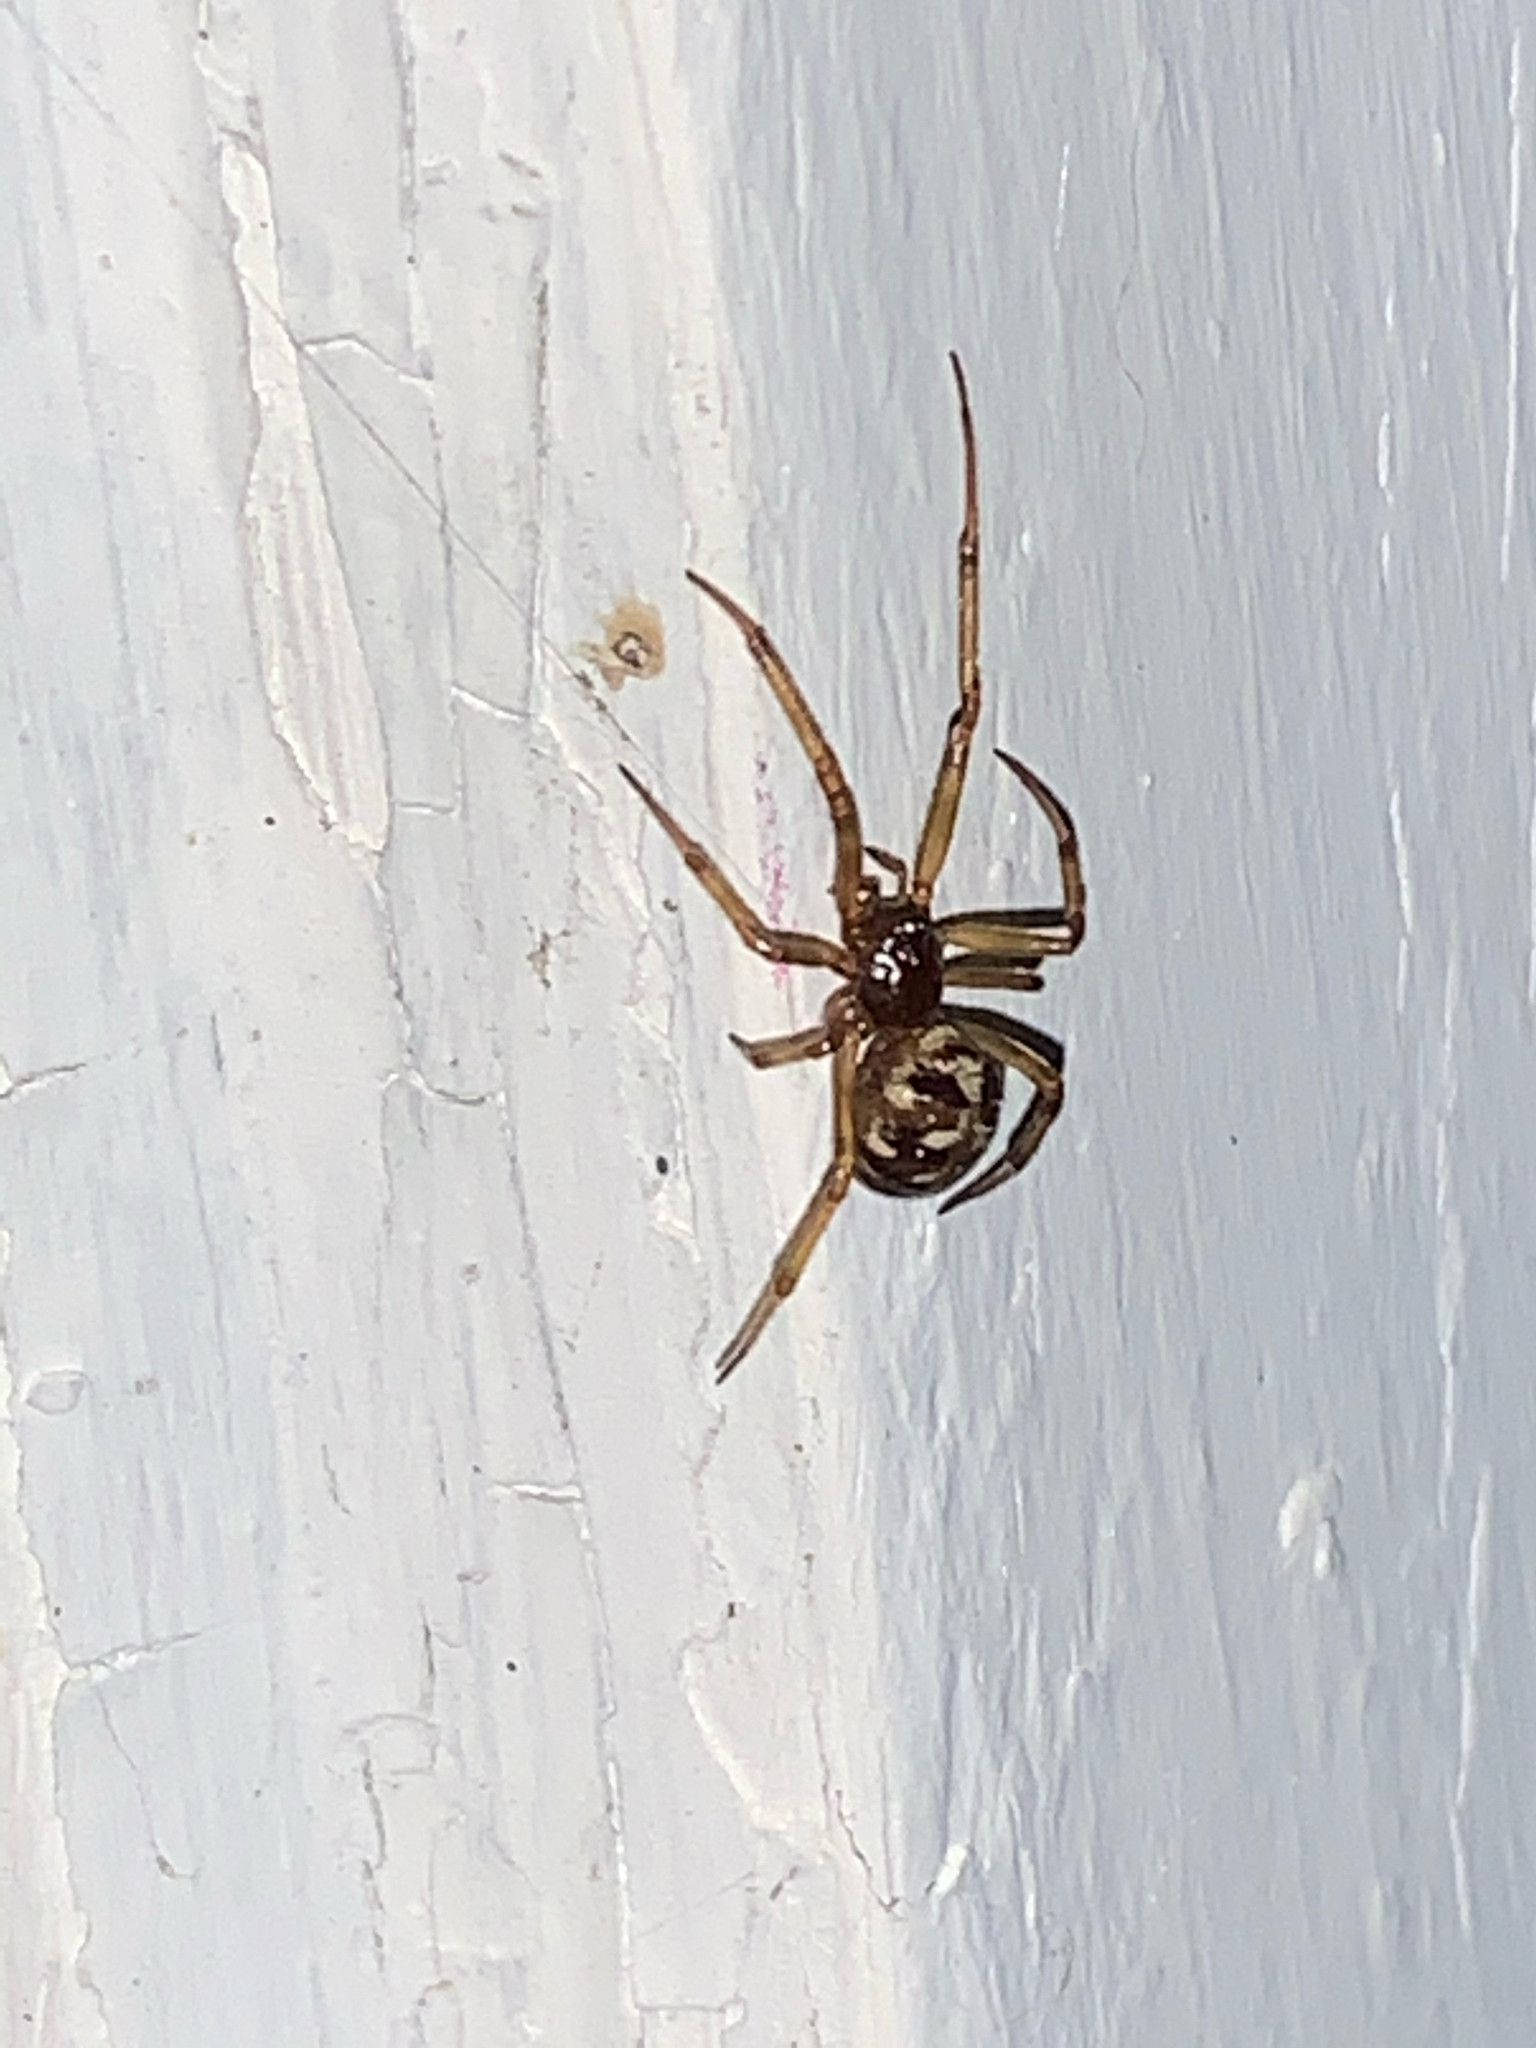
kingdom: Animalia
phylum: Arthropoda
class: Arachnida
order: Araneae
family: Theridiidae
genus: Steatoda
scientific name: Steatoda triangulosa
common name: Triangulate bud spider
